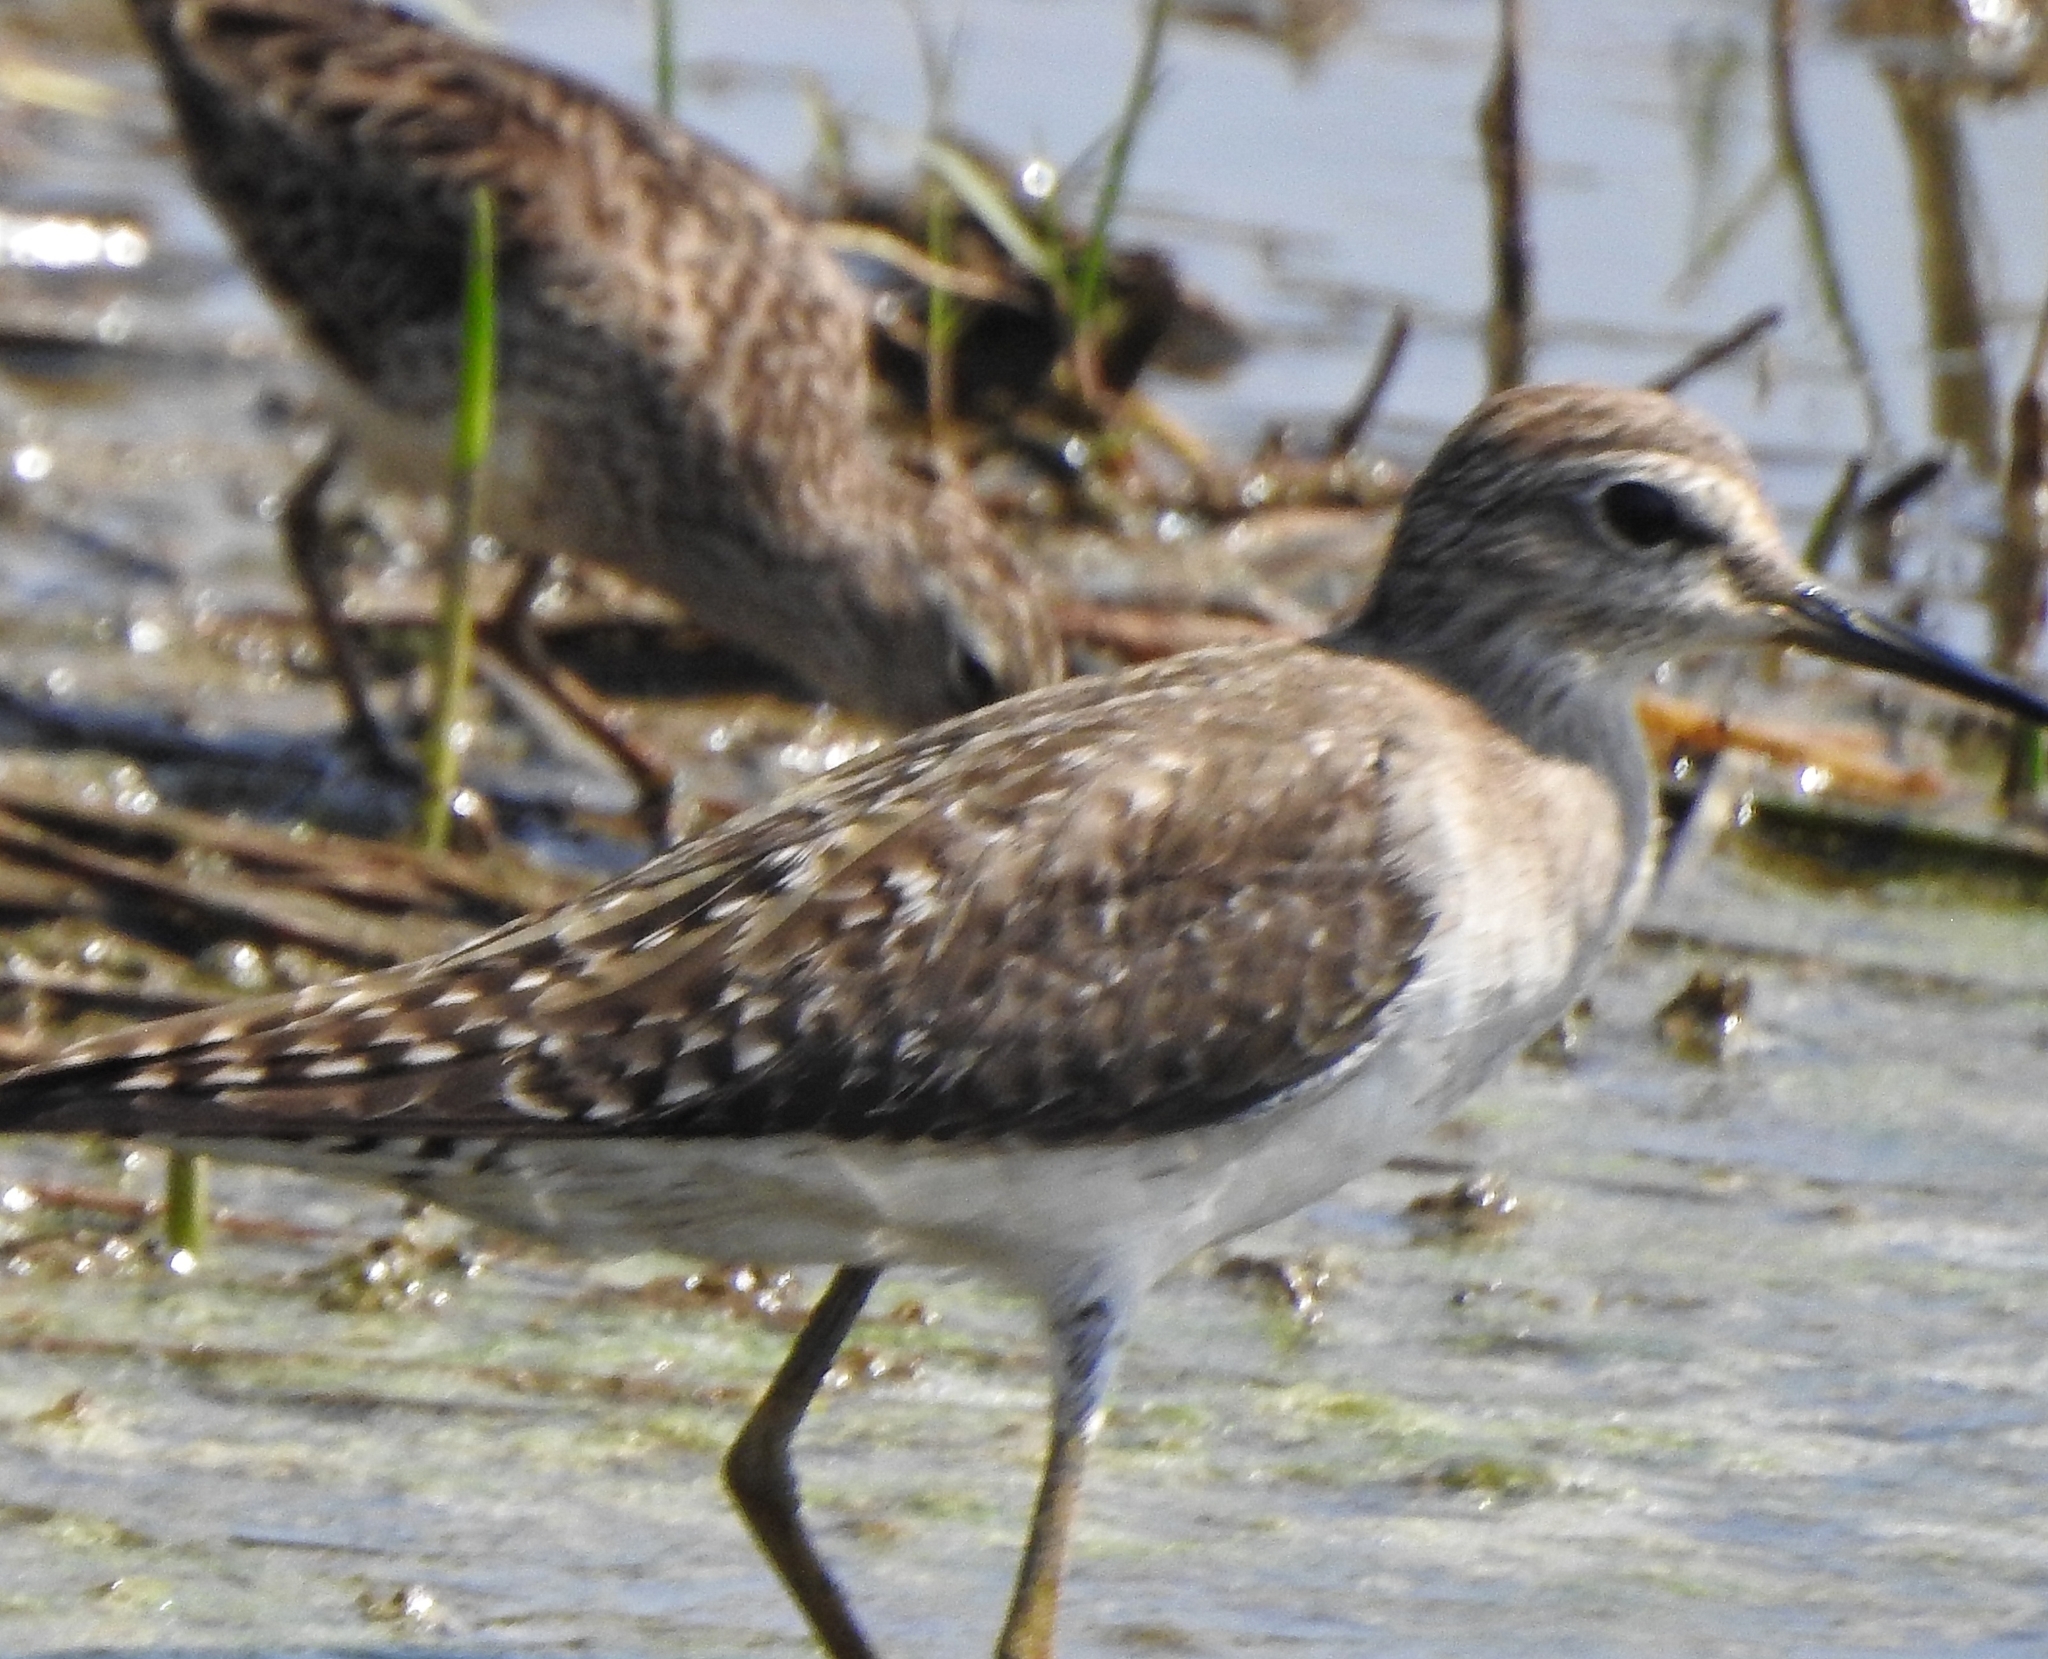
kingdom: Animalia
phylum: Chordata
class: Aves
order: Charadriiformes
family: Scolopacidae
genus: Tringa
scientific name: Tringa glareola
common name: Wood sandpiper
